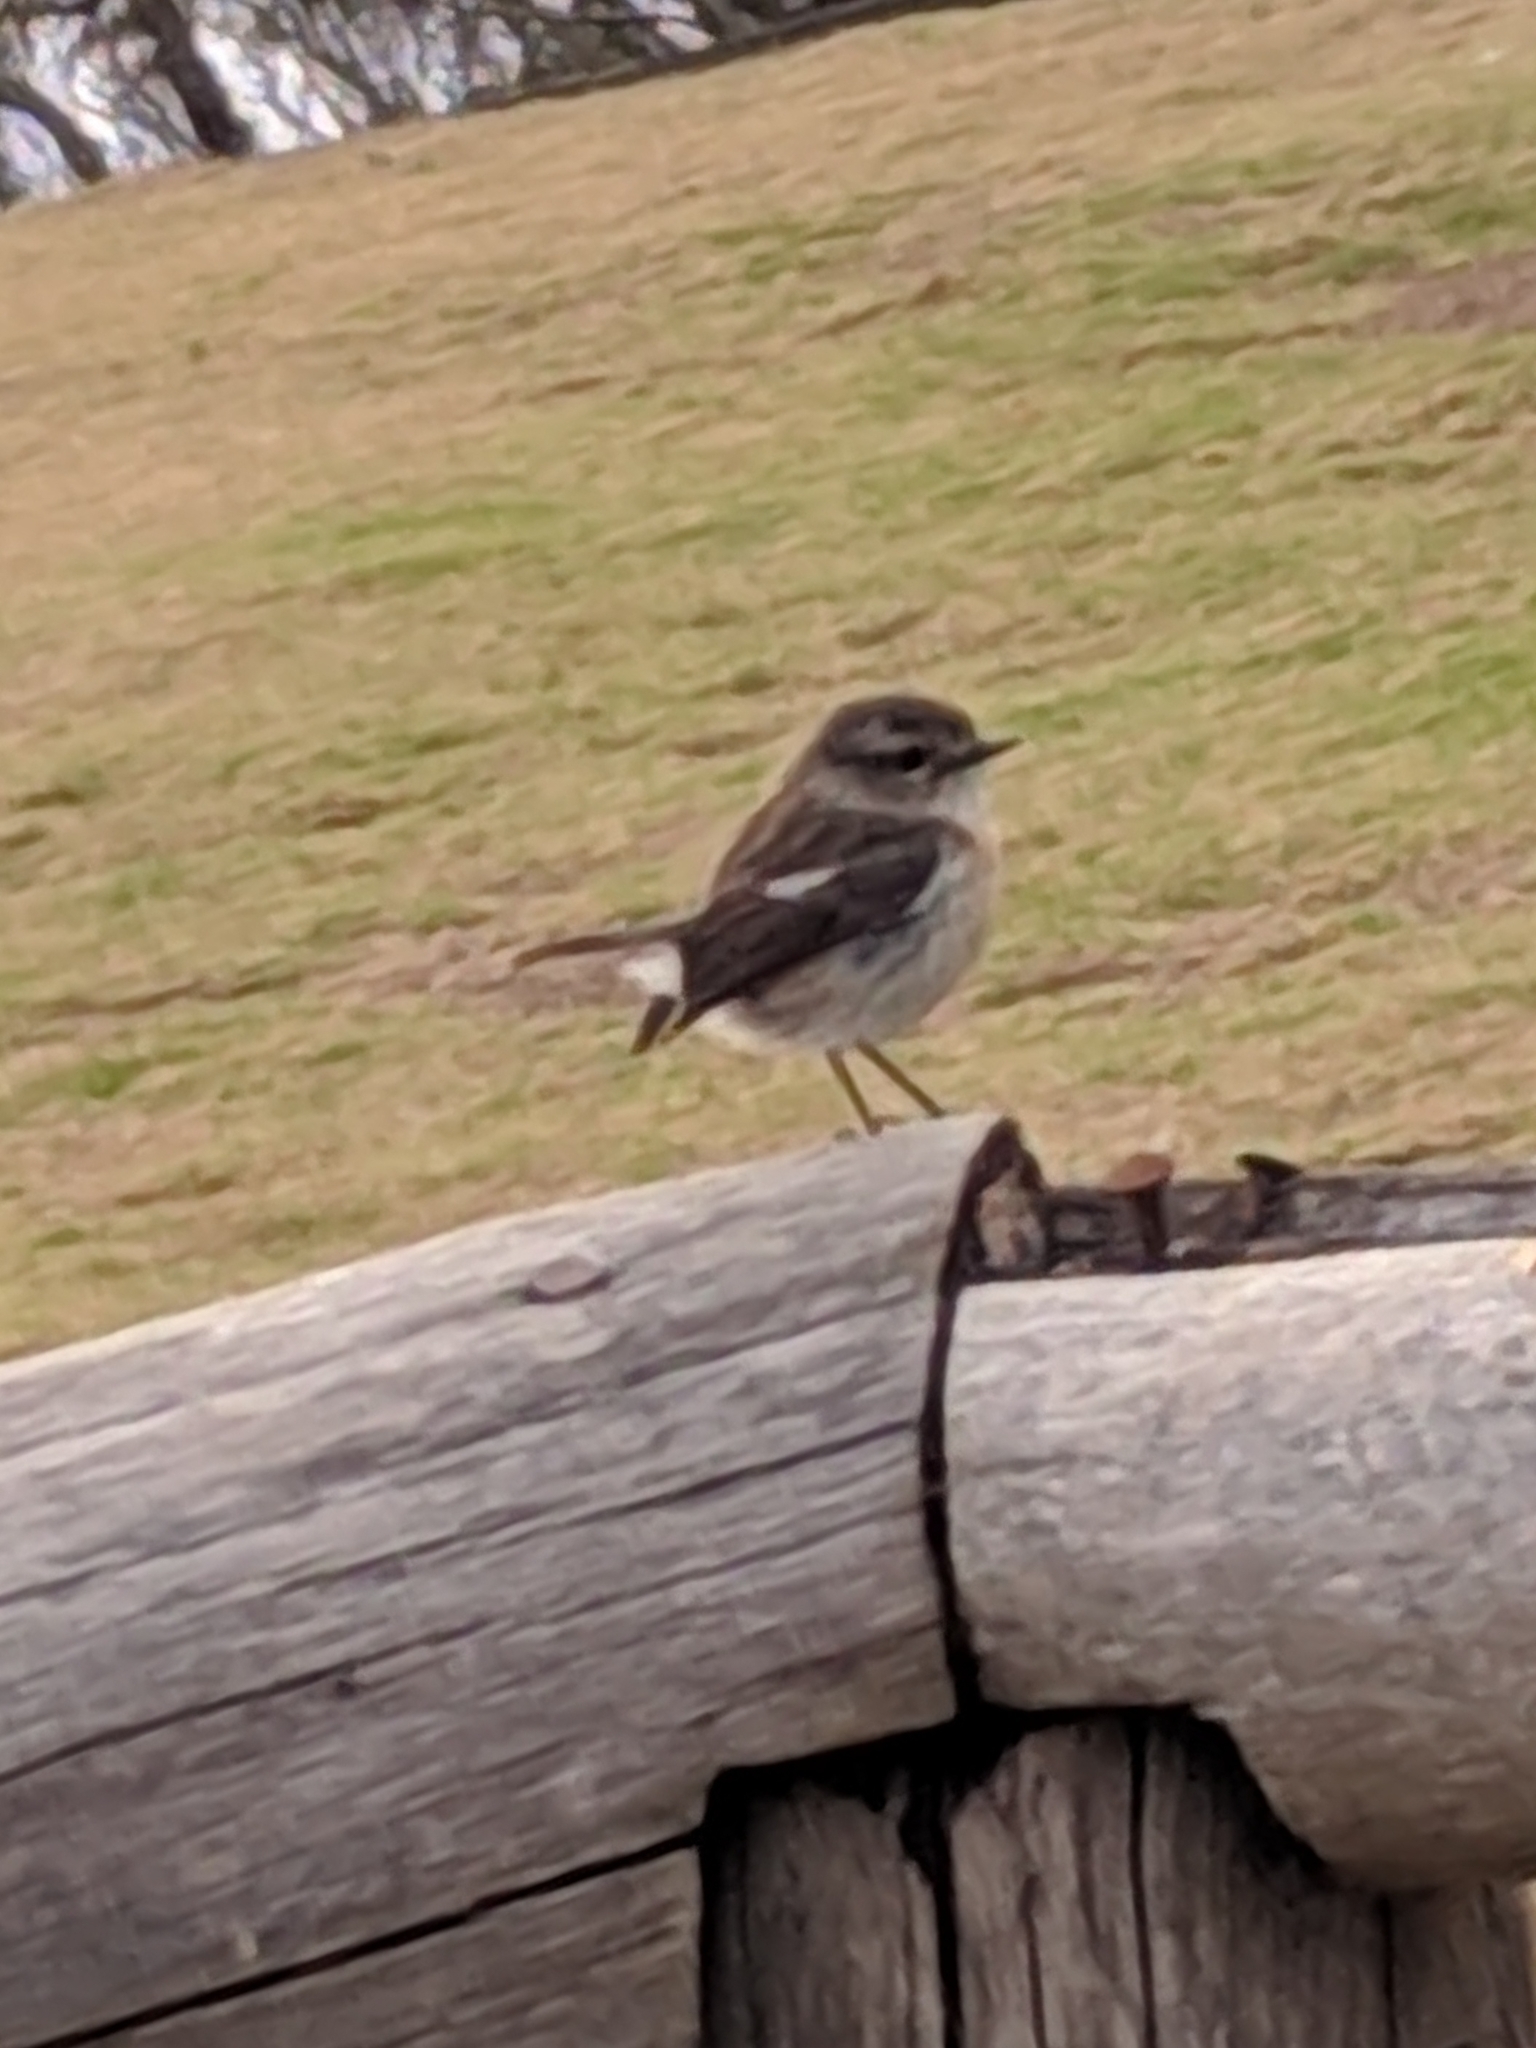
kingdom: Animalia
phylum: Chordata
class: Aves
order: Passeriformes
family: Muscicapidae
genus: Saxicola
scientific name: Saxicola tectes
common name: Reunion stonechat
